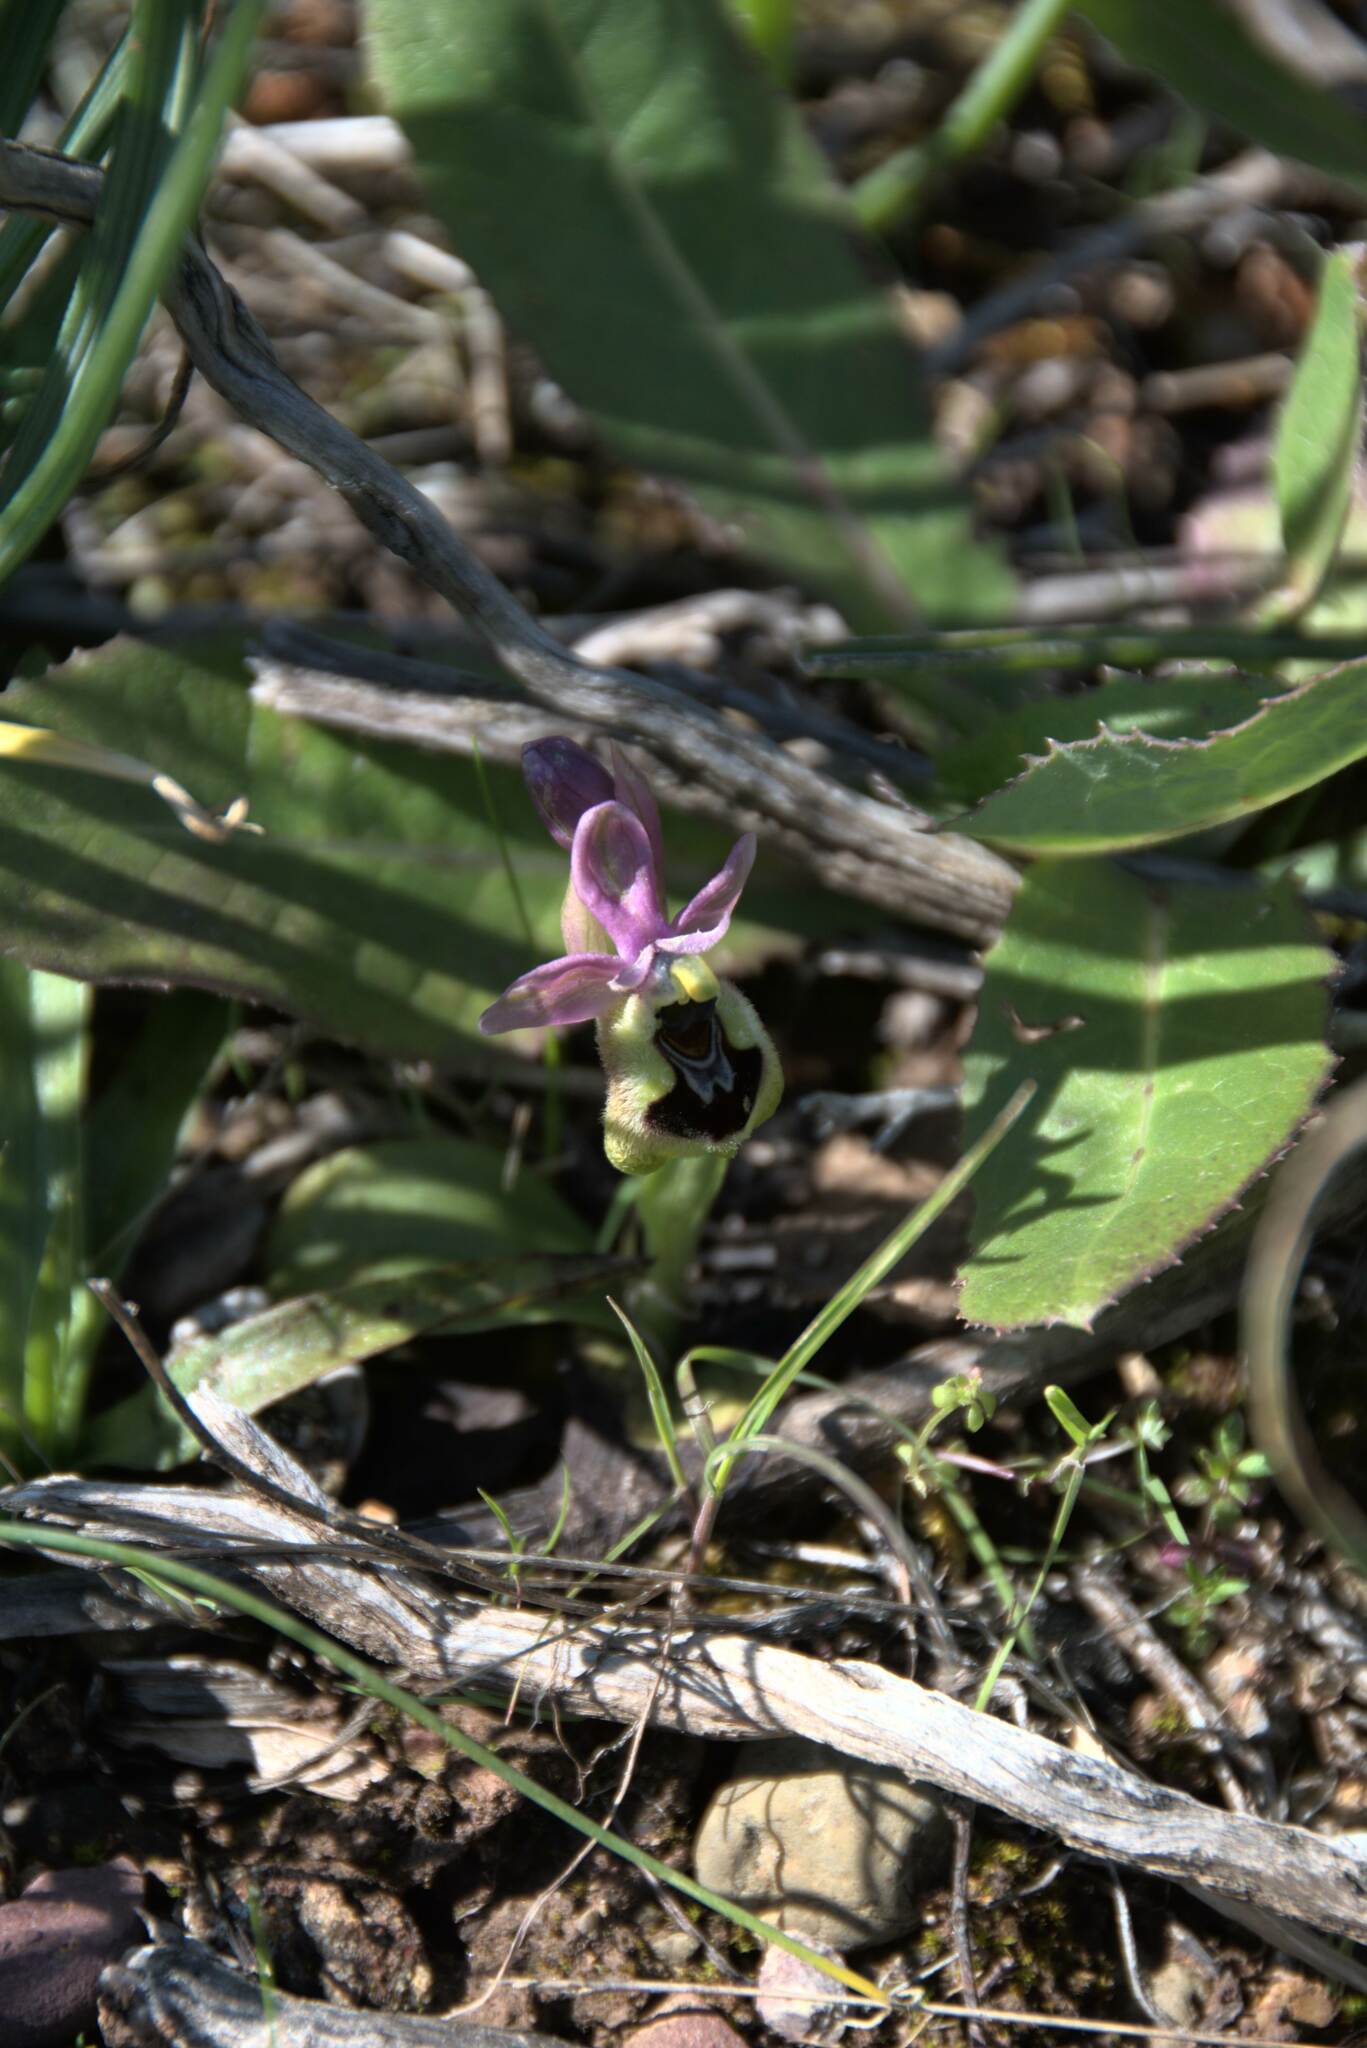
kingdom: Plantae
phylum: Tracheophyta
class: Liliopsida
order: Asparagales
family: Orchidaceae
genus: Ophrys
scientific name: Ophrys tenthredinifera
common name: Sawfly orchid
